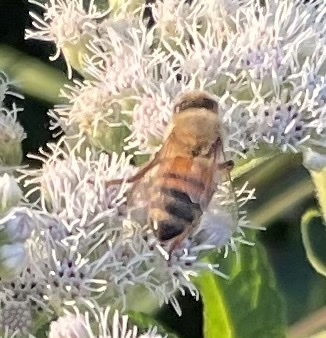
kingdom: Animalia
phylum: Arthropoda
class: Insecta
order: Hymenoptera
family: Apidae
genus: Apis
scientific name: Apis mellifera
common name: Honey bee
